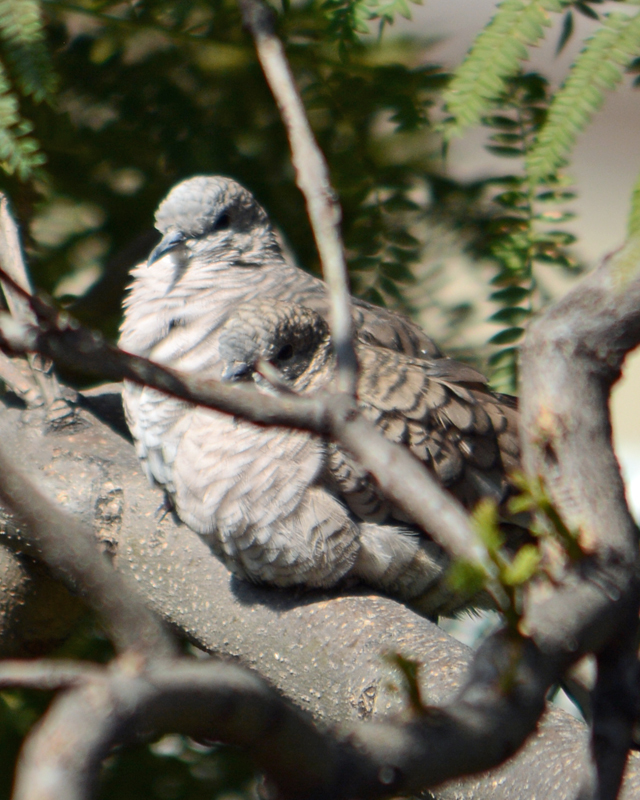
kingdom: Animalia
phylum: Chordata
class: Aves
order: Columbiformes
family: Columbidae
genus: Columbina
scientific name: Columbina inca
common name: Inca dove
